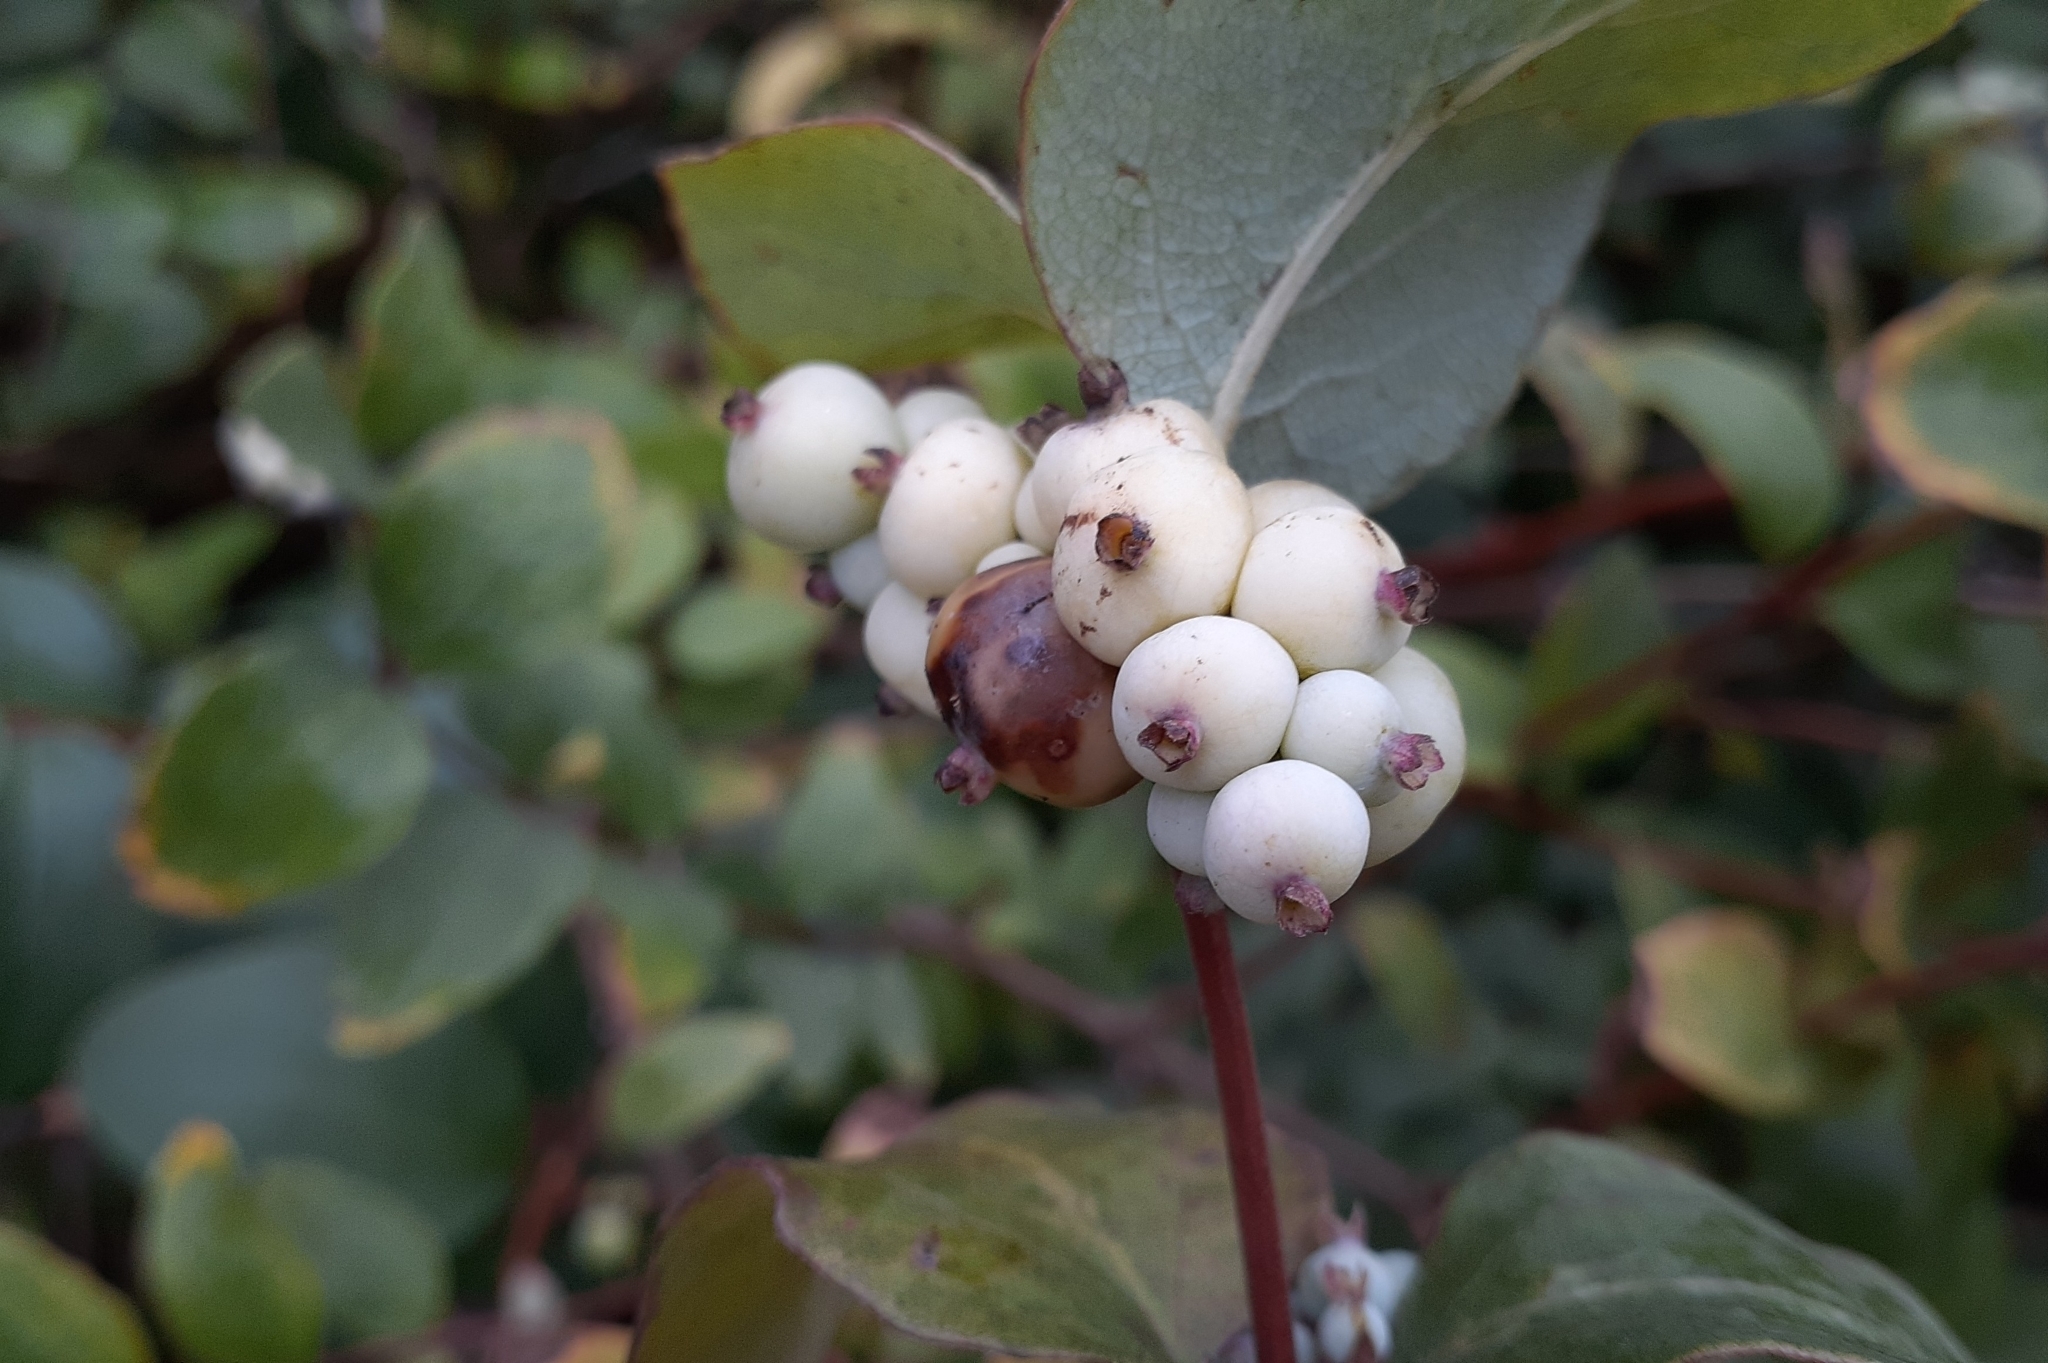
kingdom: Plantae
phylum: Tracheophyta
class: Magnoliopsida
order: Dipsacales
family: Caprifoliaceae
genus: Symphoricarpos
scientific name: Symphoricarpos albus
